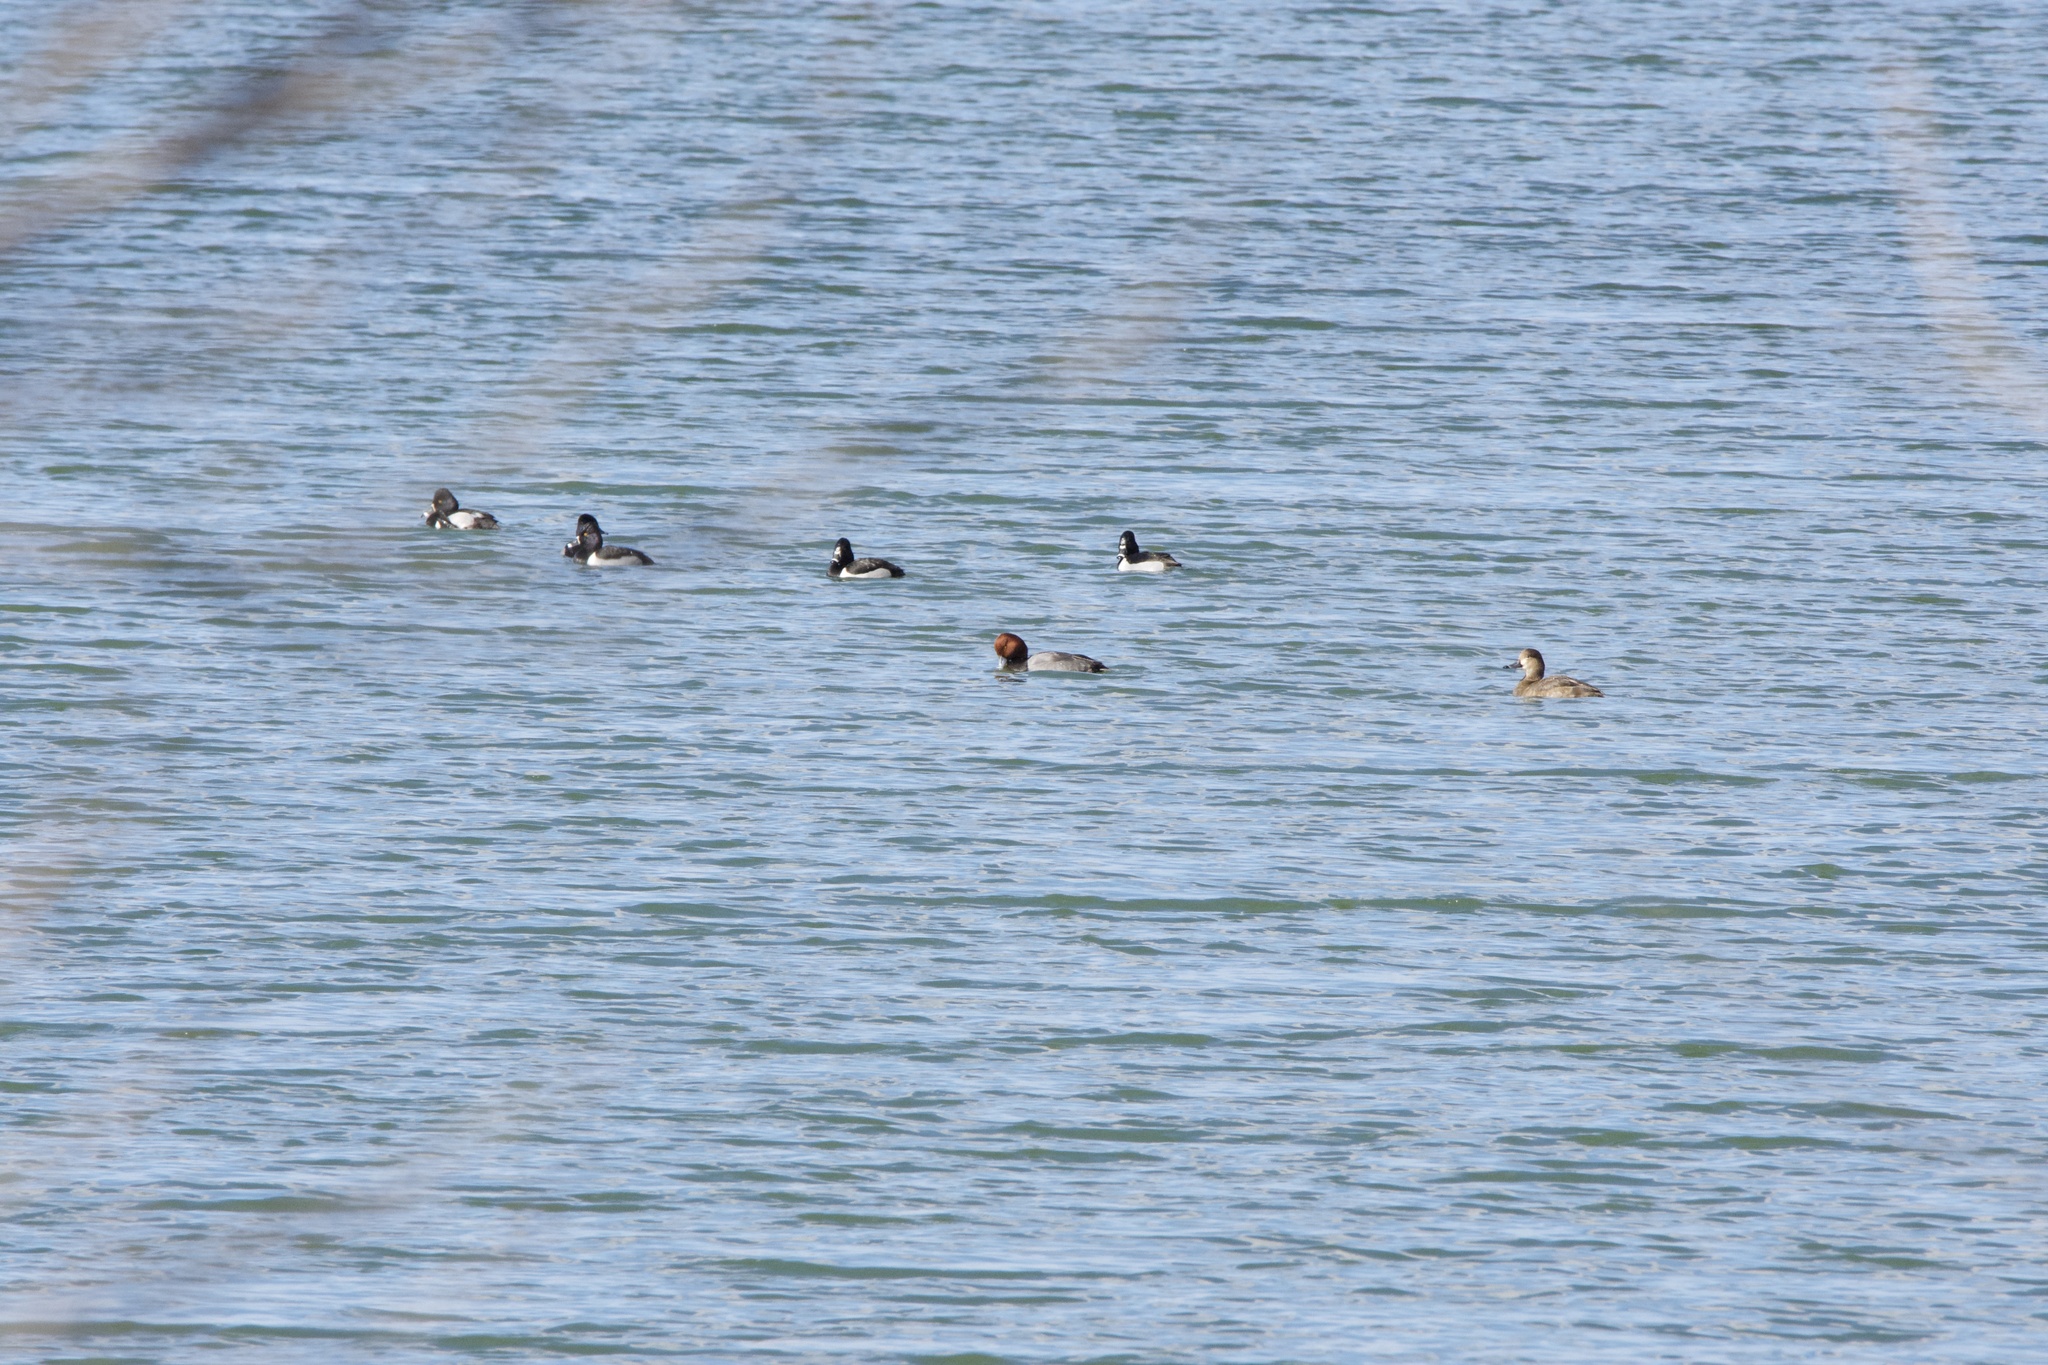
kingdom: Animalia
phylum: Chordata
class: Aves
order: Anseriformes
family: Anatidae
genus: Aythya
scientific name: Aythya americana
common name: Redhead
